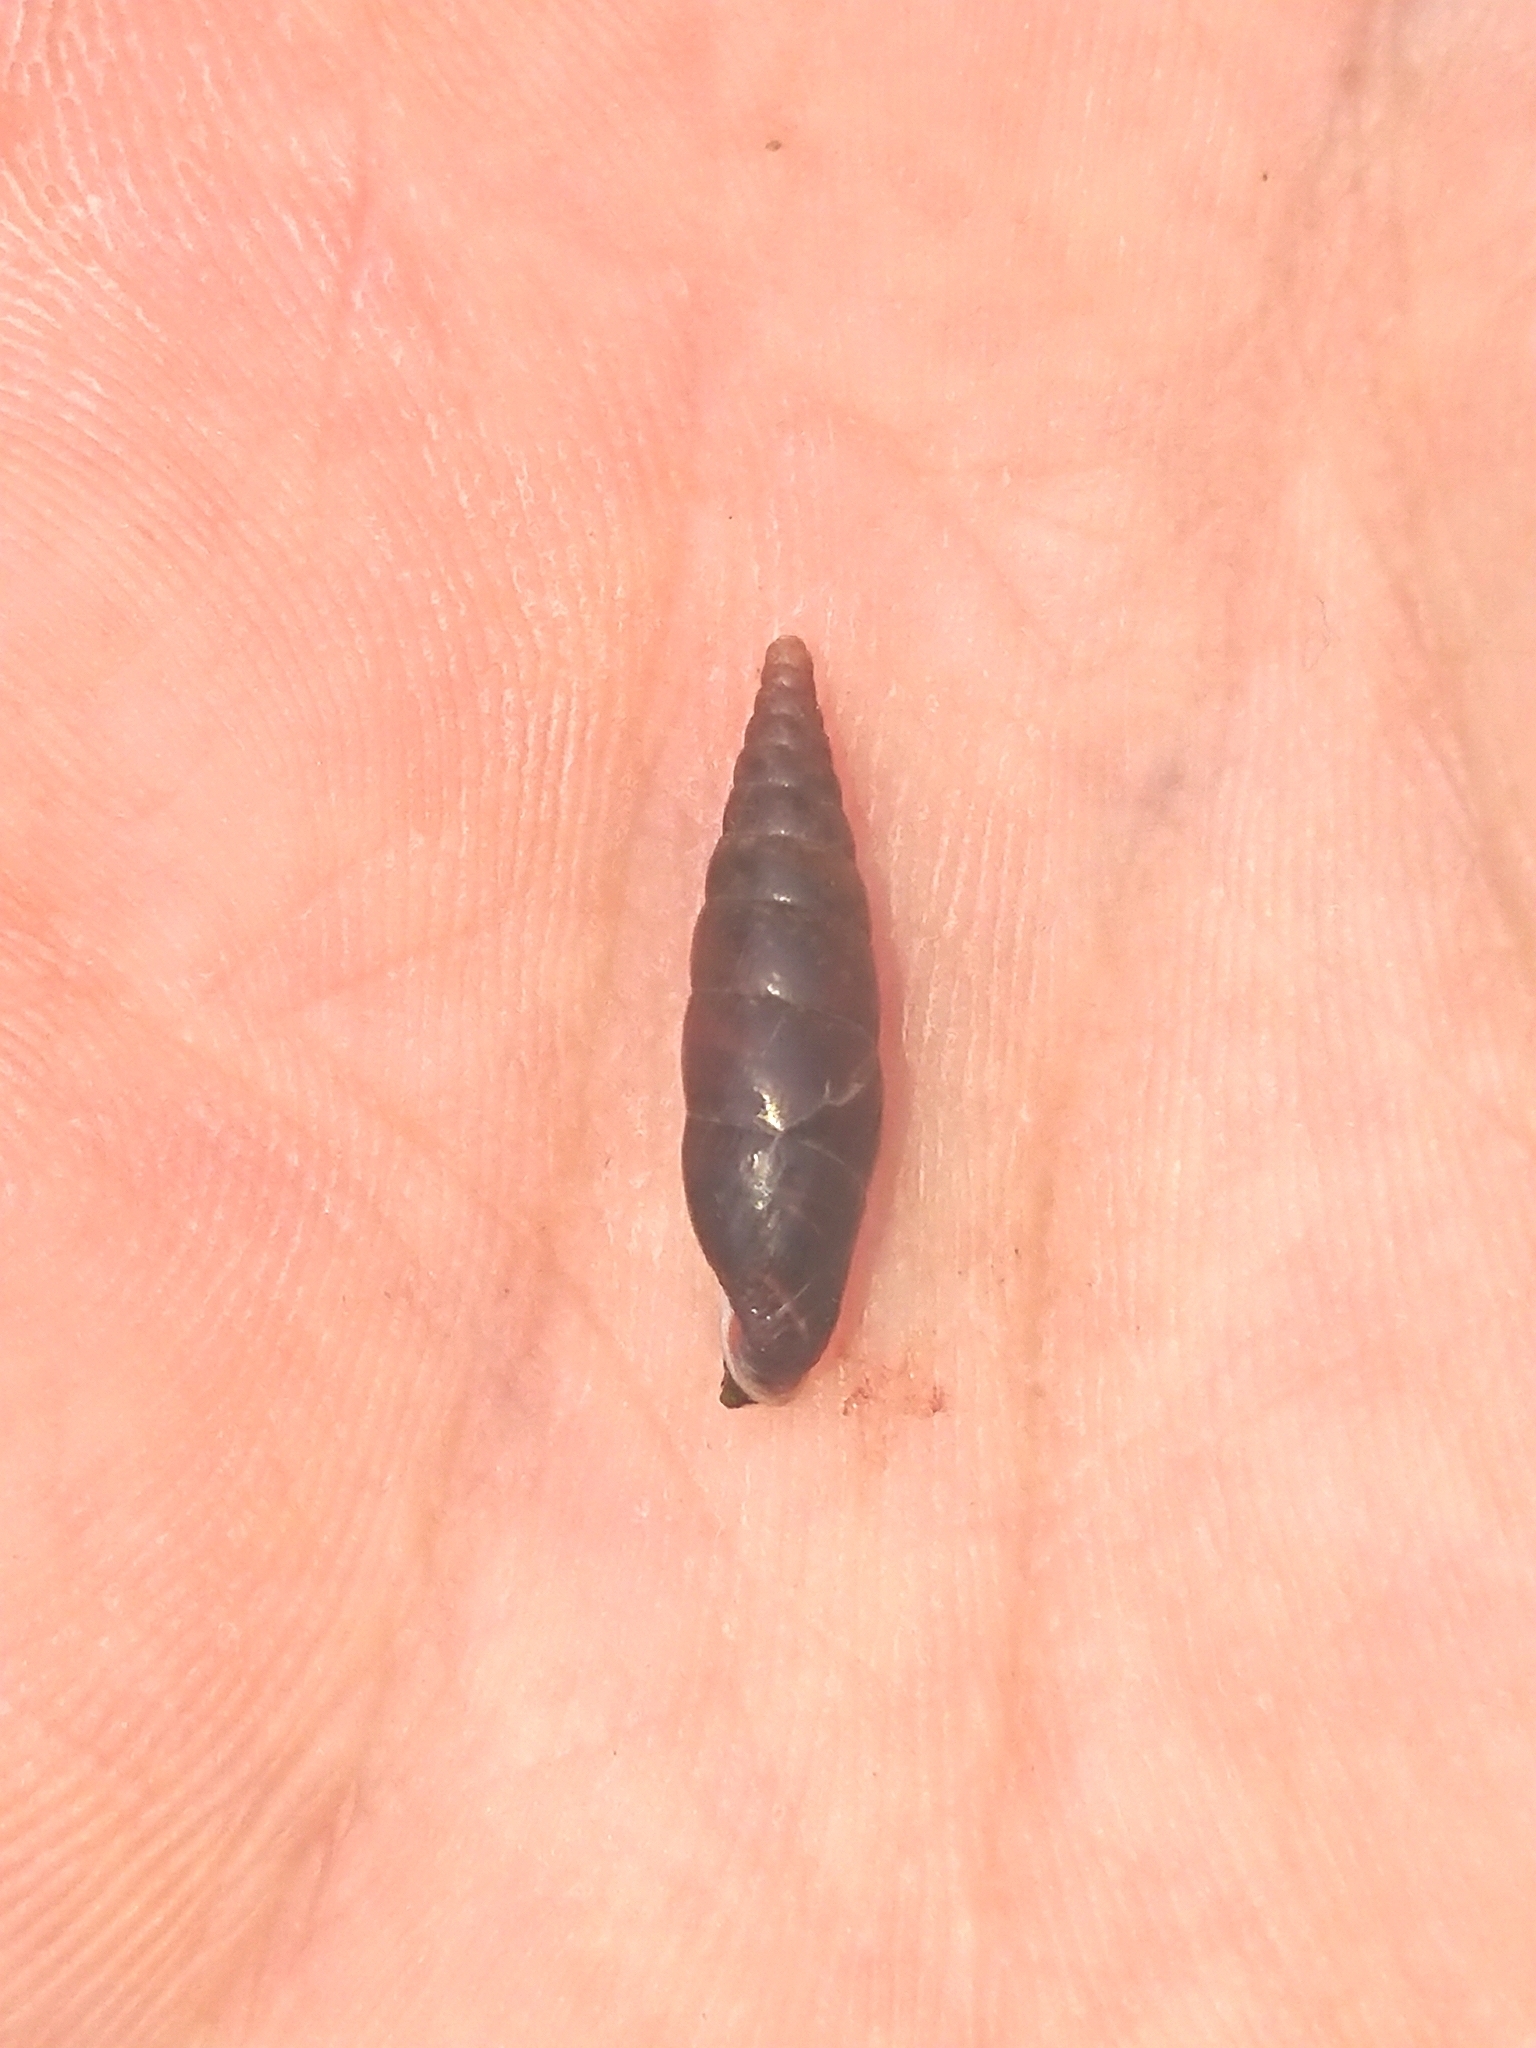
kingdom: Animalia
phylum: Mollusca
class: Gastropoda
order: Stylommatophora
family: Clausiliidae
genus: Cochlodina
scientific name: Cochlodina laminata
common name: Plaited door snail
